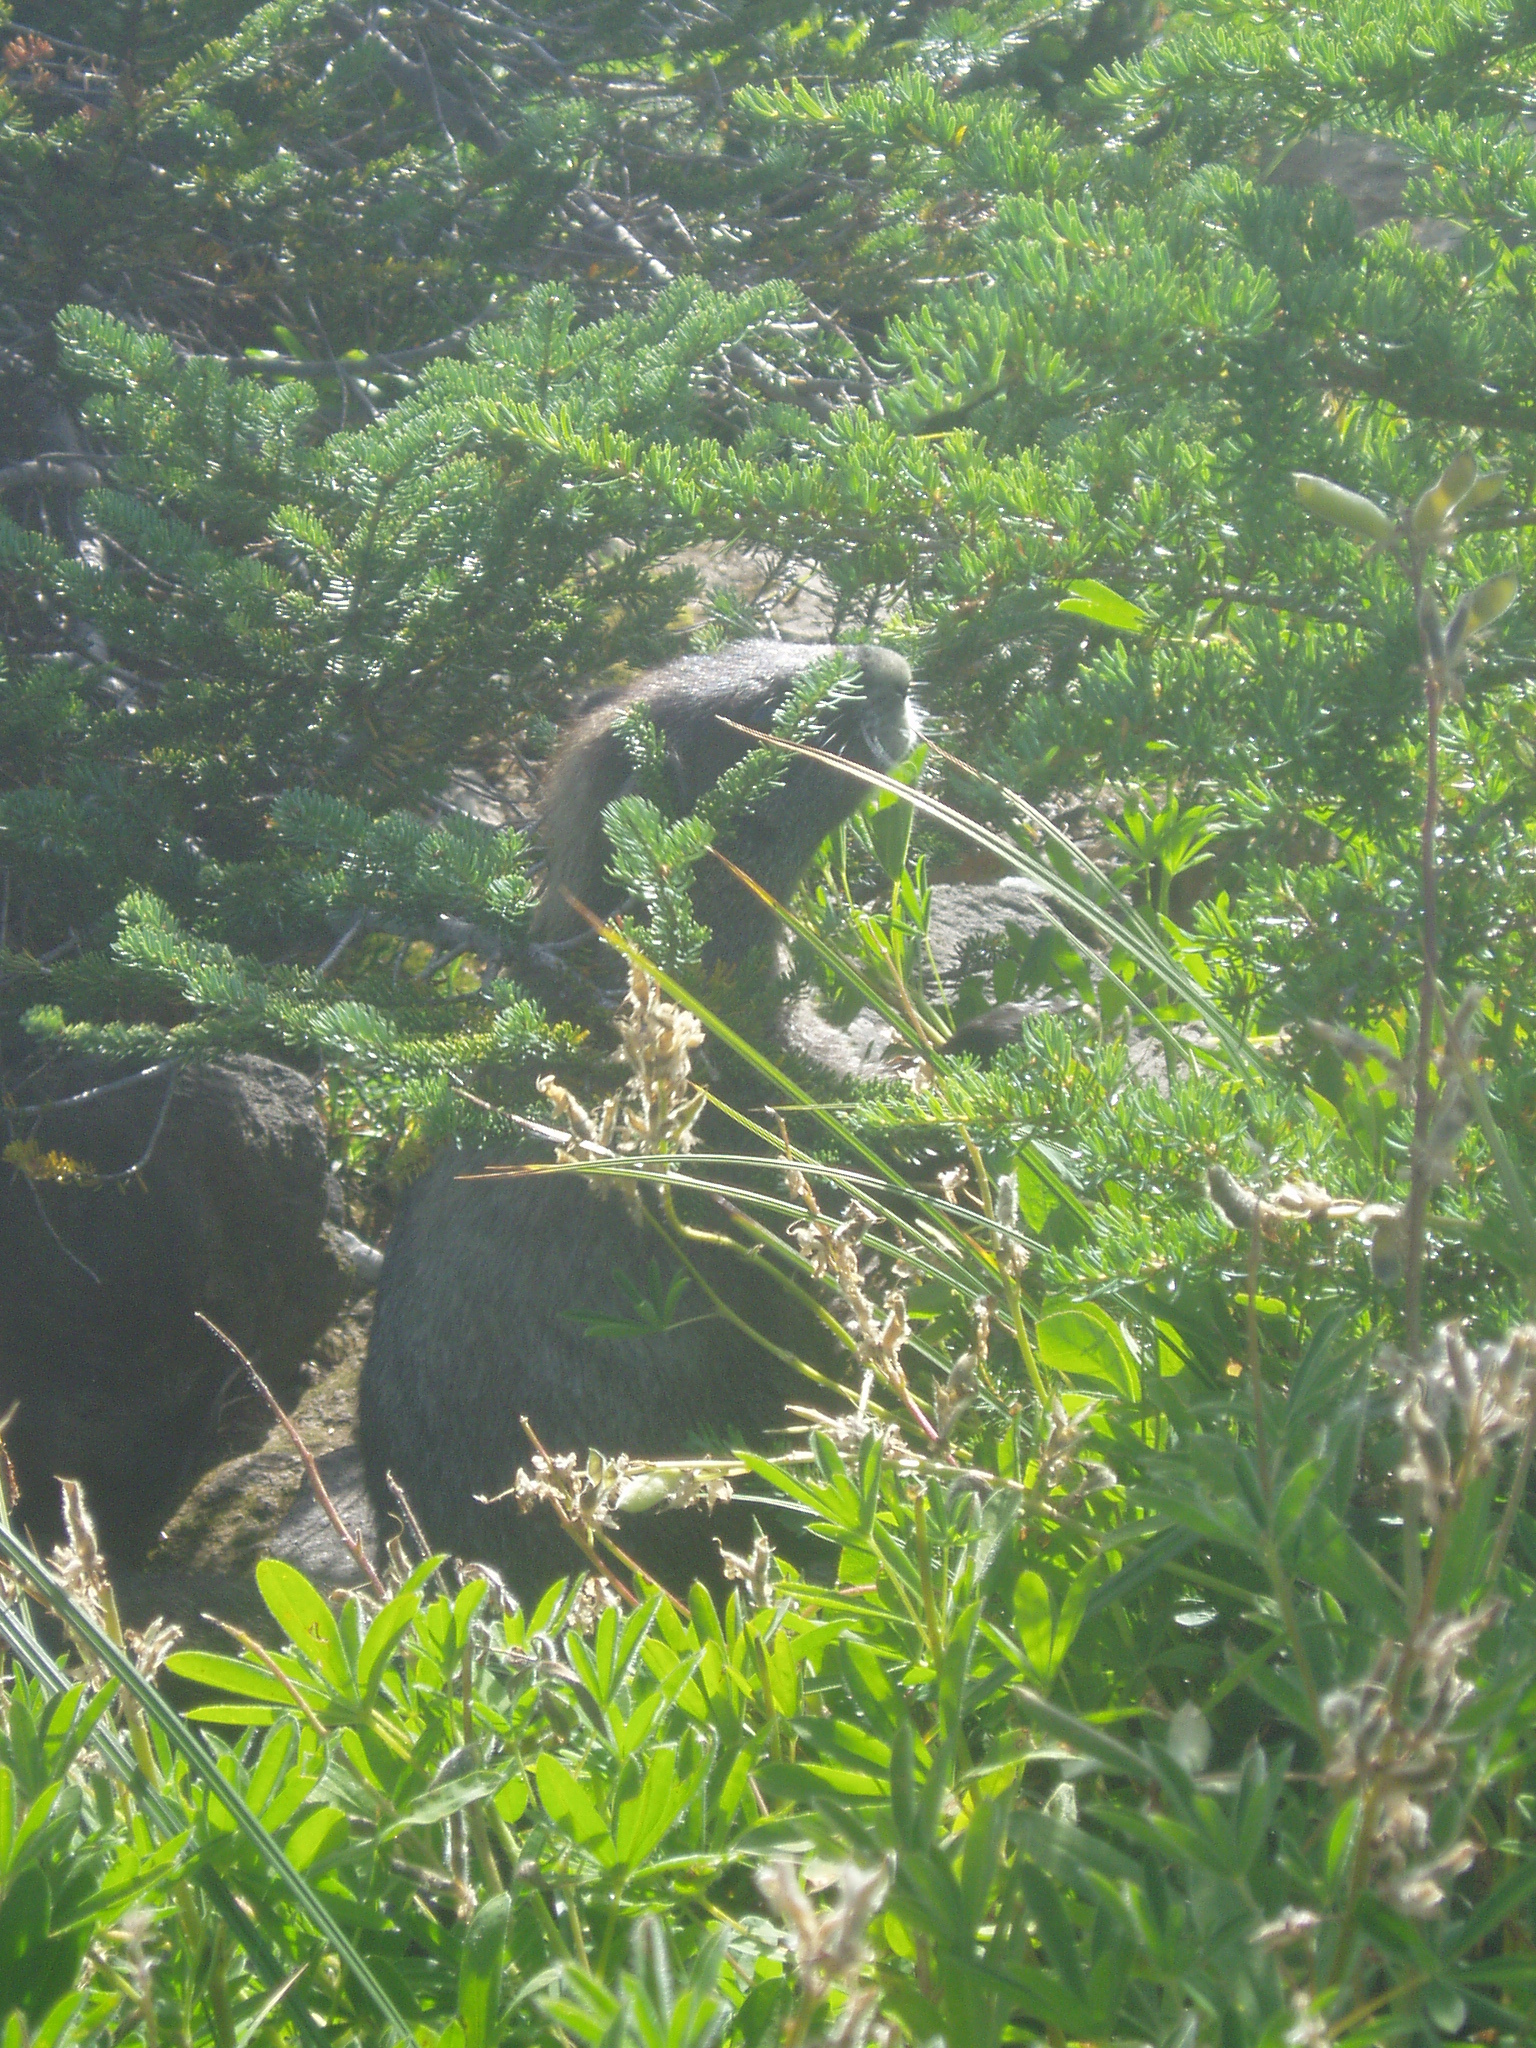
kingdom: Animalia
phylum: Chordata
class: Mammalia
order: Rodentia
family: Sciuridae
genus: Marmota
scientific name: Marmota caligata
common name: Hoary marmot
